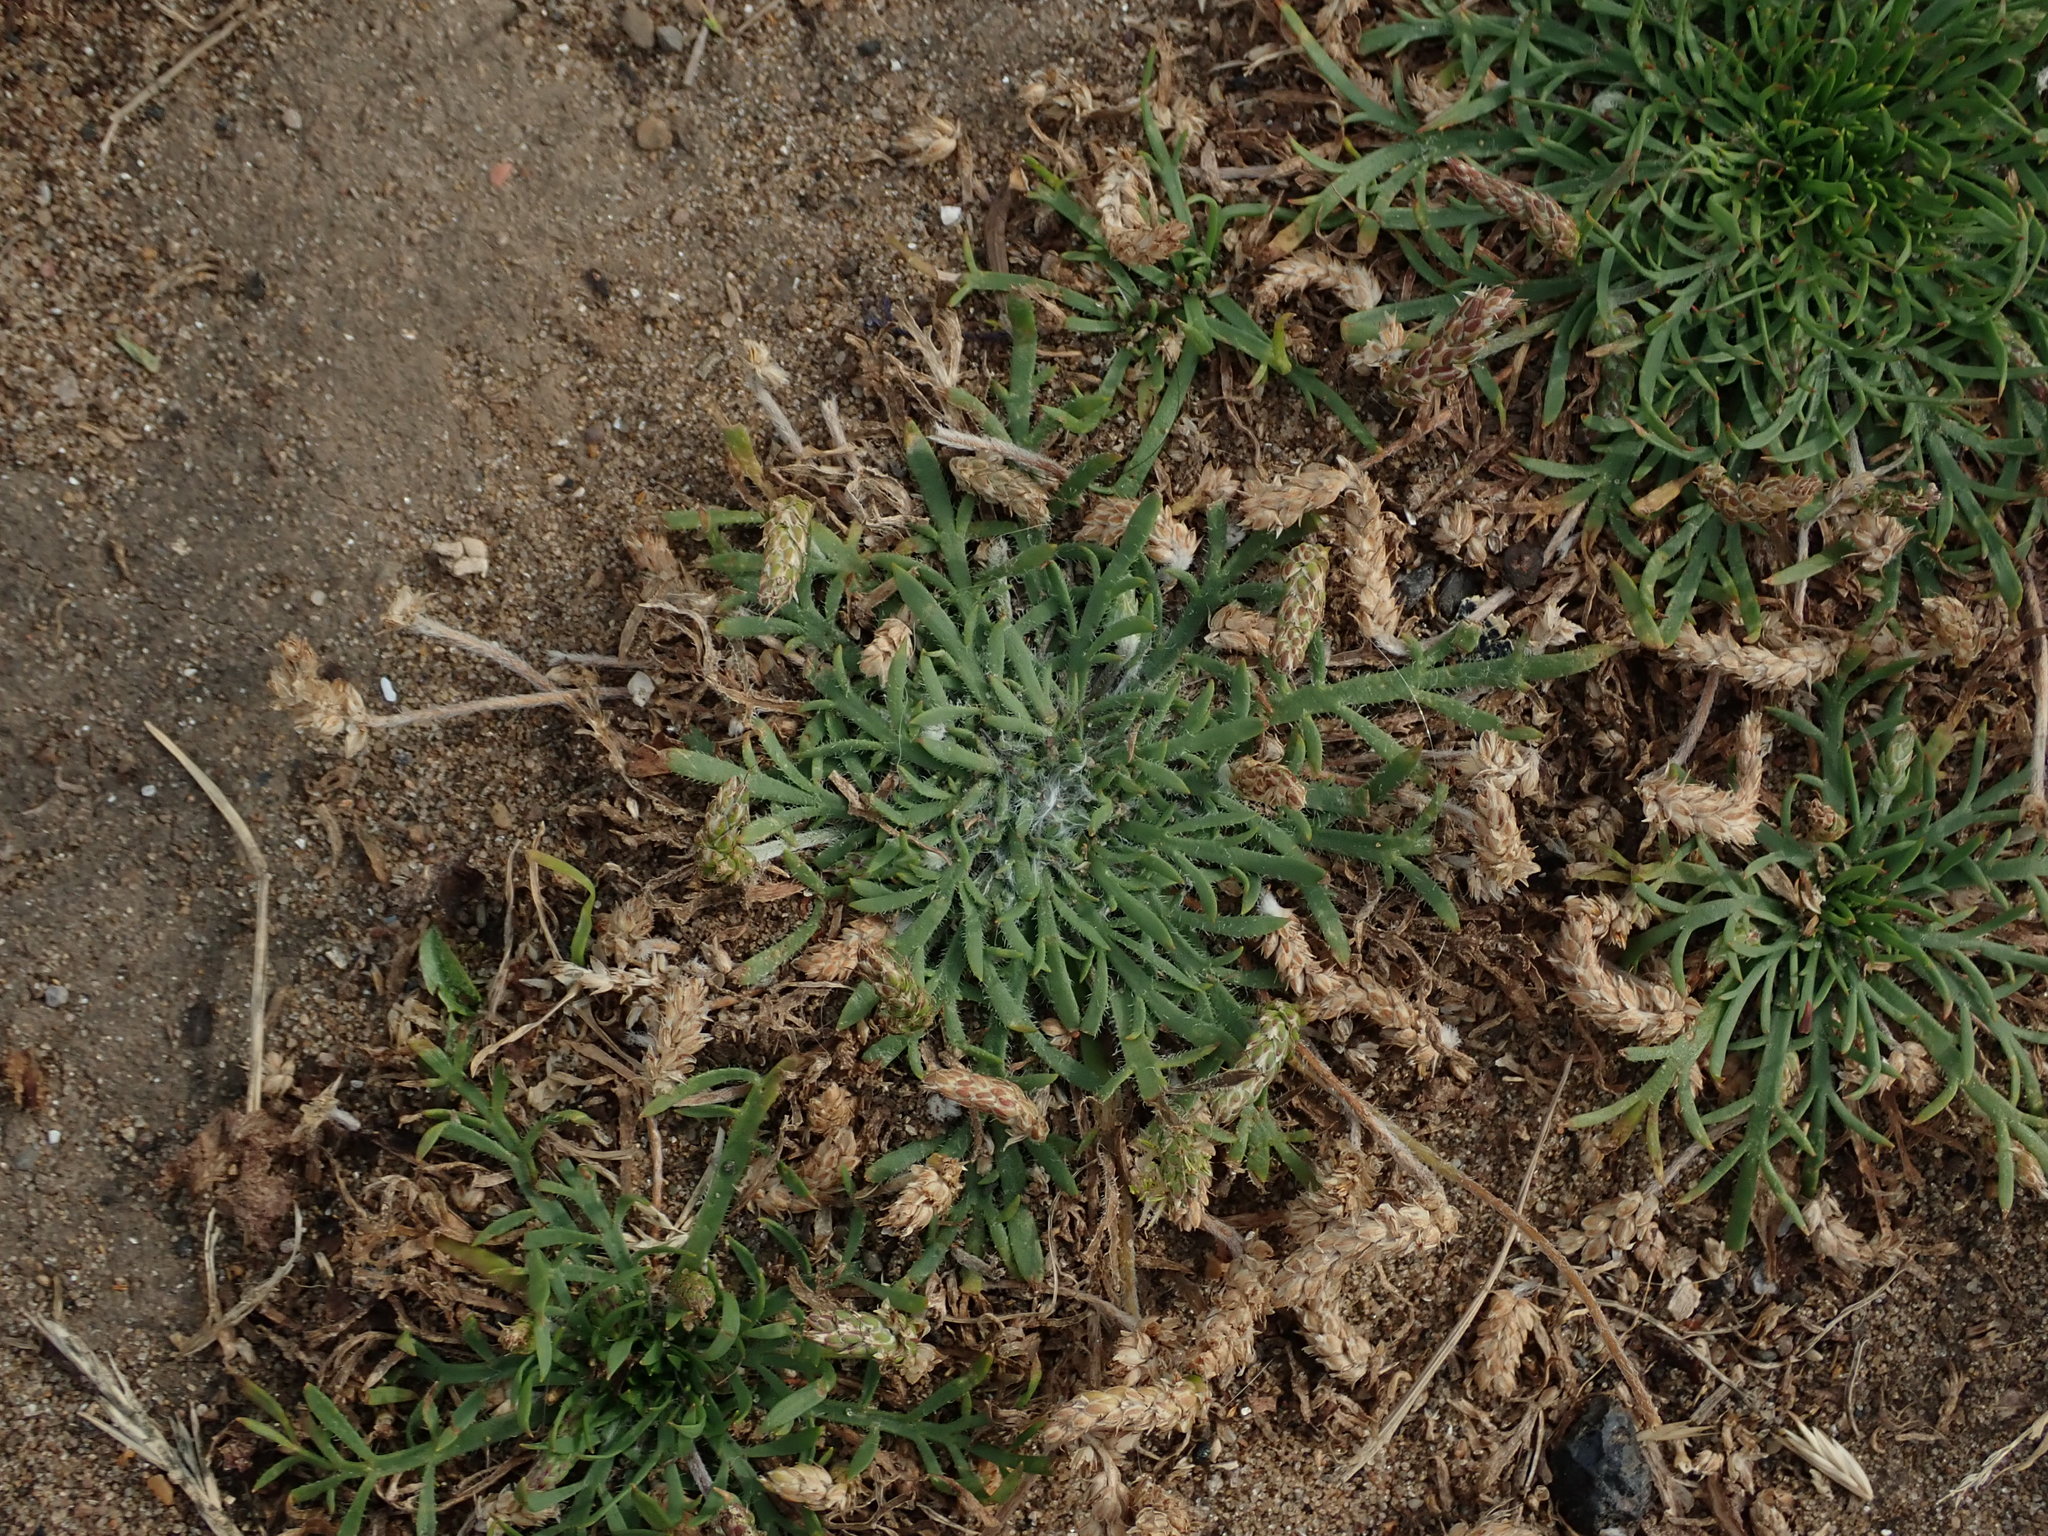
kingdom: Plantae
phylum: Tracheophyta
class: Magnoliopsida
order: Lamiales
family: Plantaginaceae
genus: Plantago
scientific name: Plantago coronopus
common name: Buck's-horn plantain
